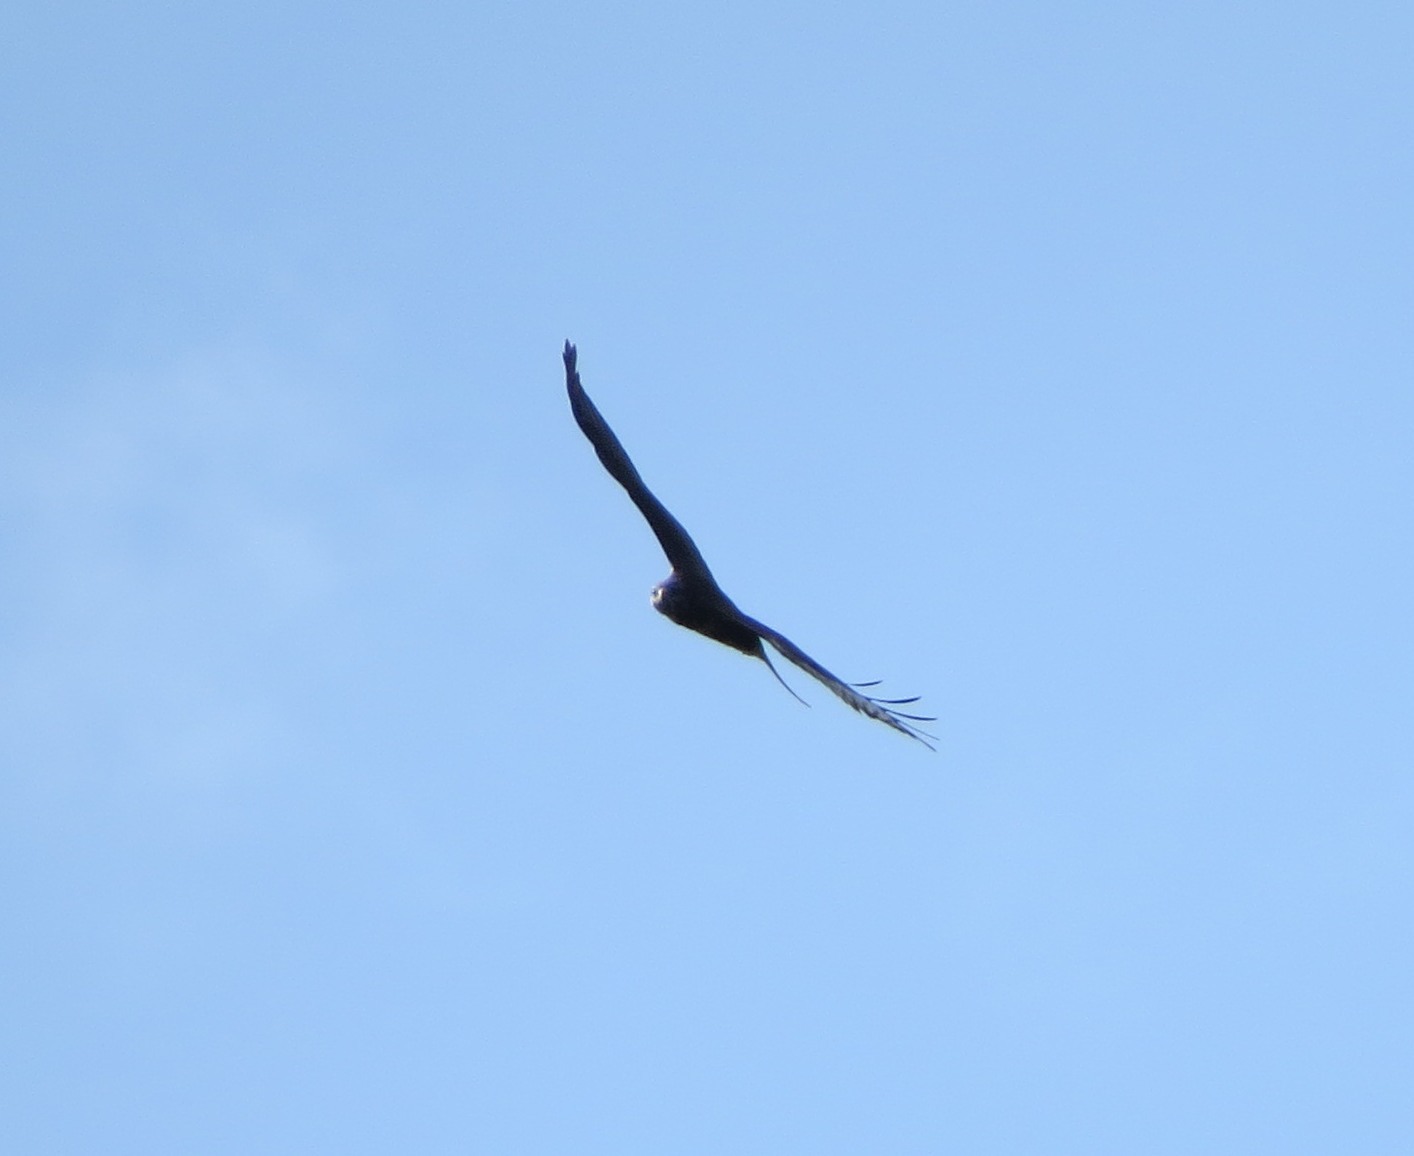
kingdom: Animalia
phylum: Chordata
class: Aves
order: Accipitriformes
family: Accipitridae
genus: Buteo
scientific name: Buteo buteo
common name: Common buzzard
